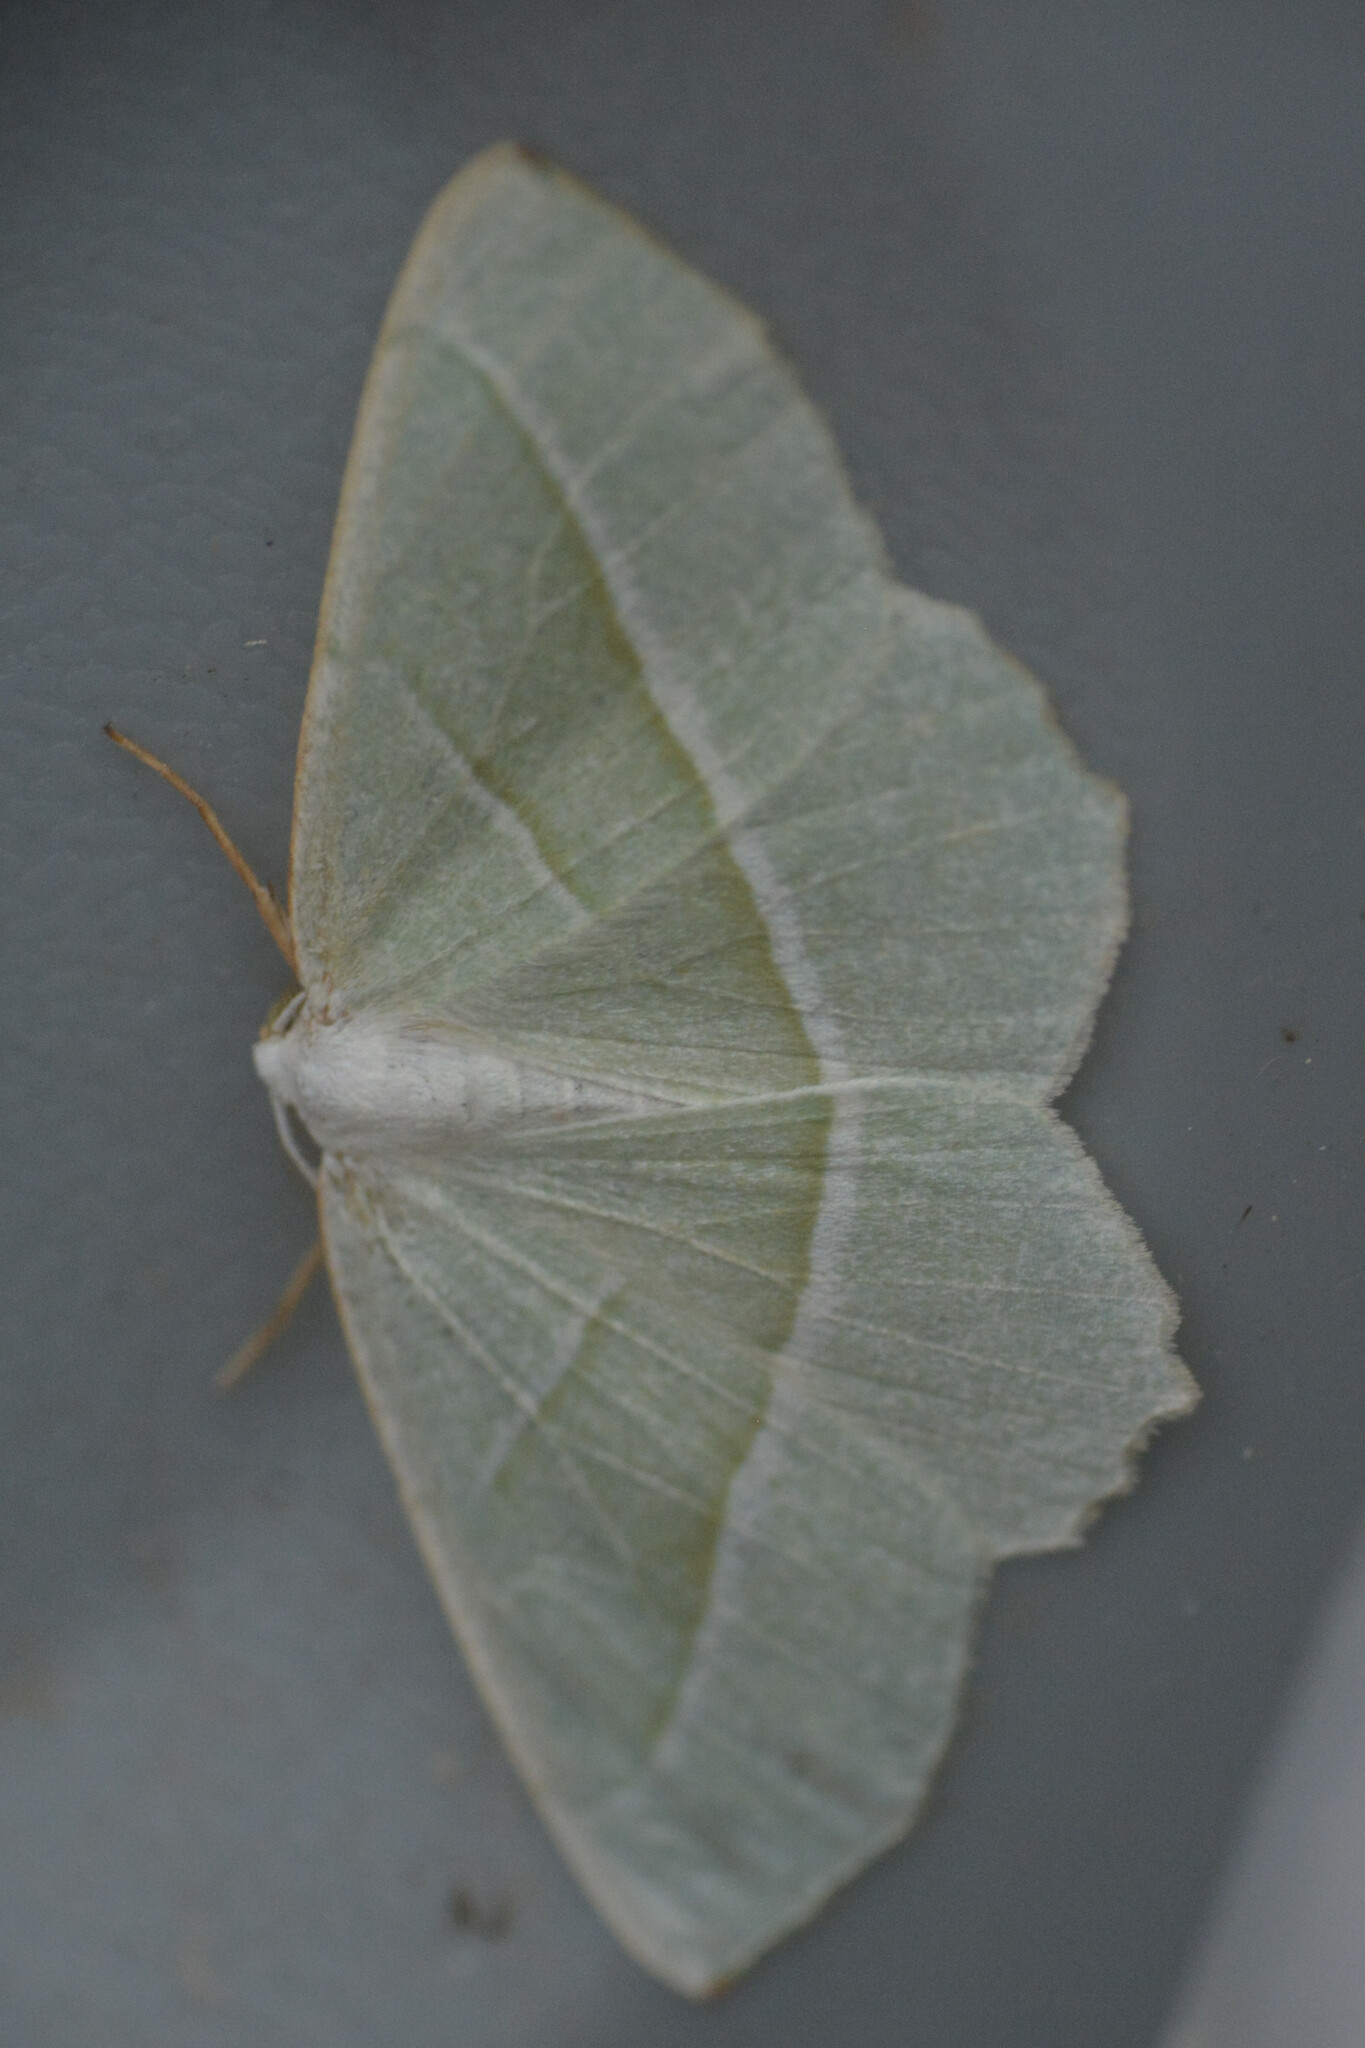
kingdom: Animalia
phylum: Arthropoda
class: Insecta
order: Lepidoptera
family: Geometridae
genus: Campaea
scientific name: Campaea margaritaria
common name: Light emerald
